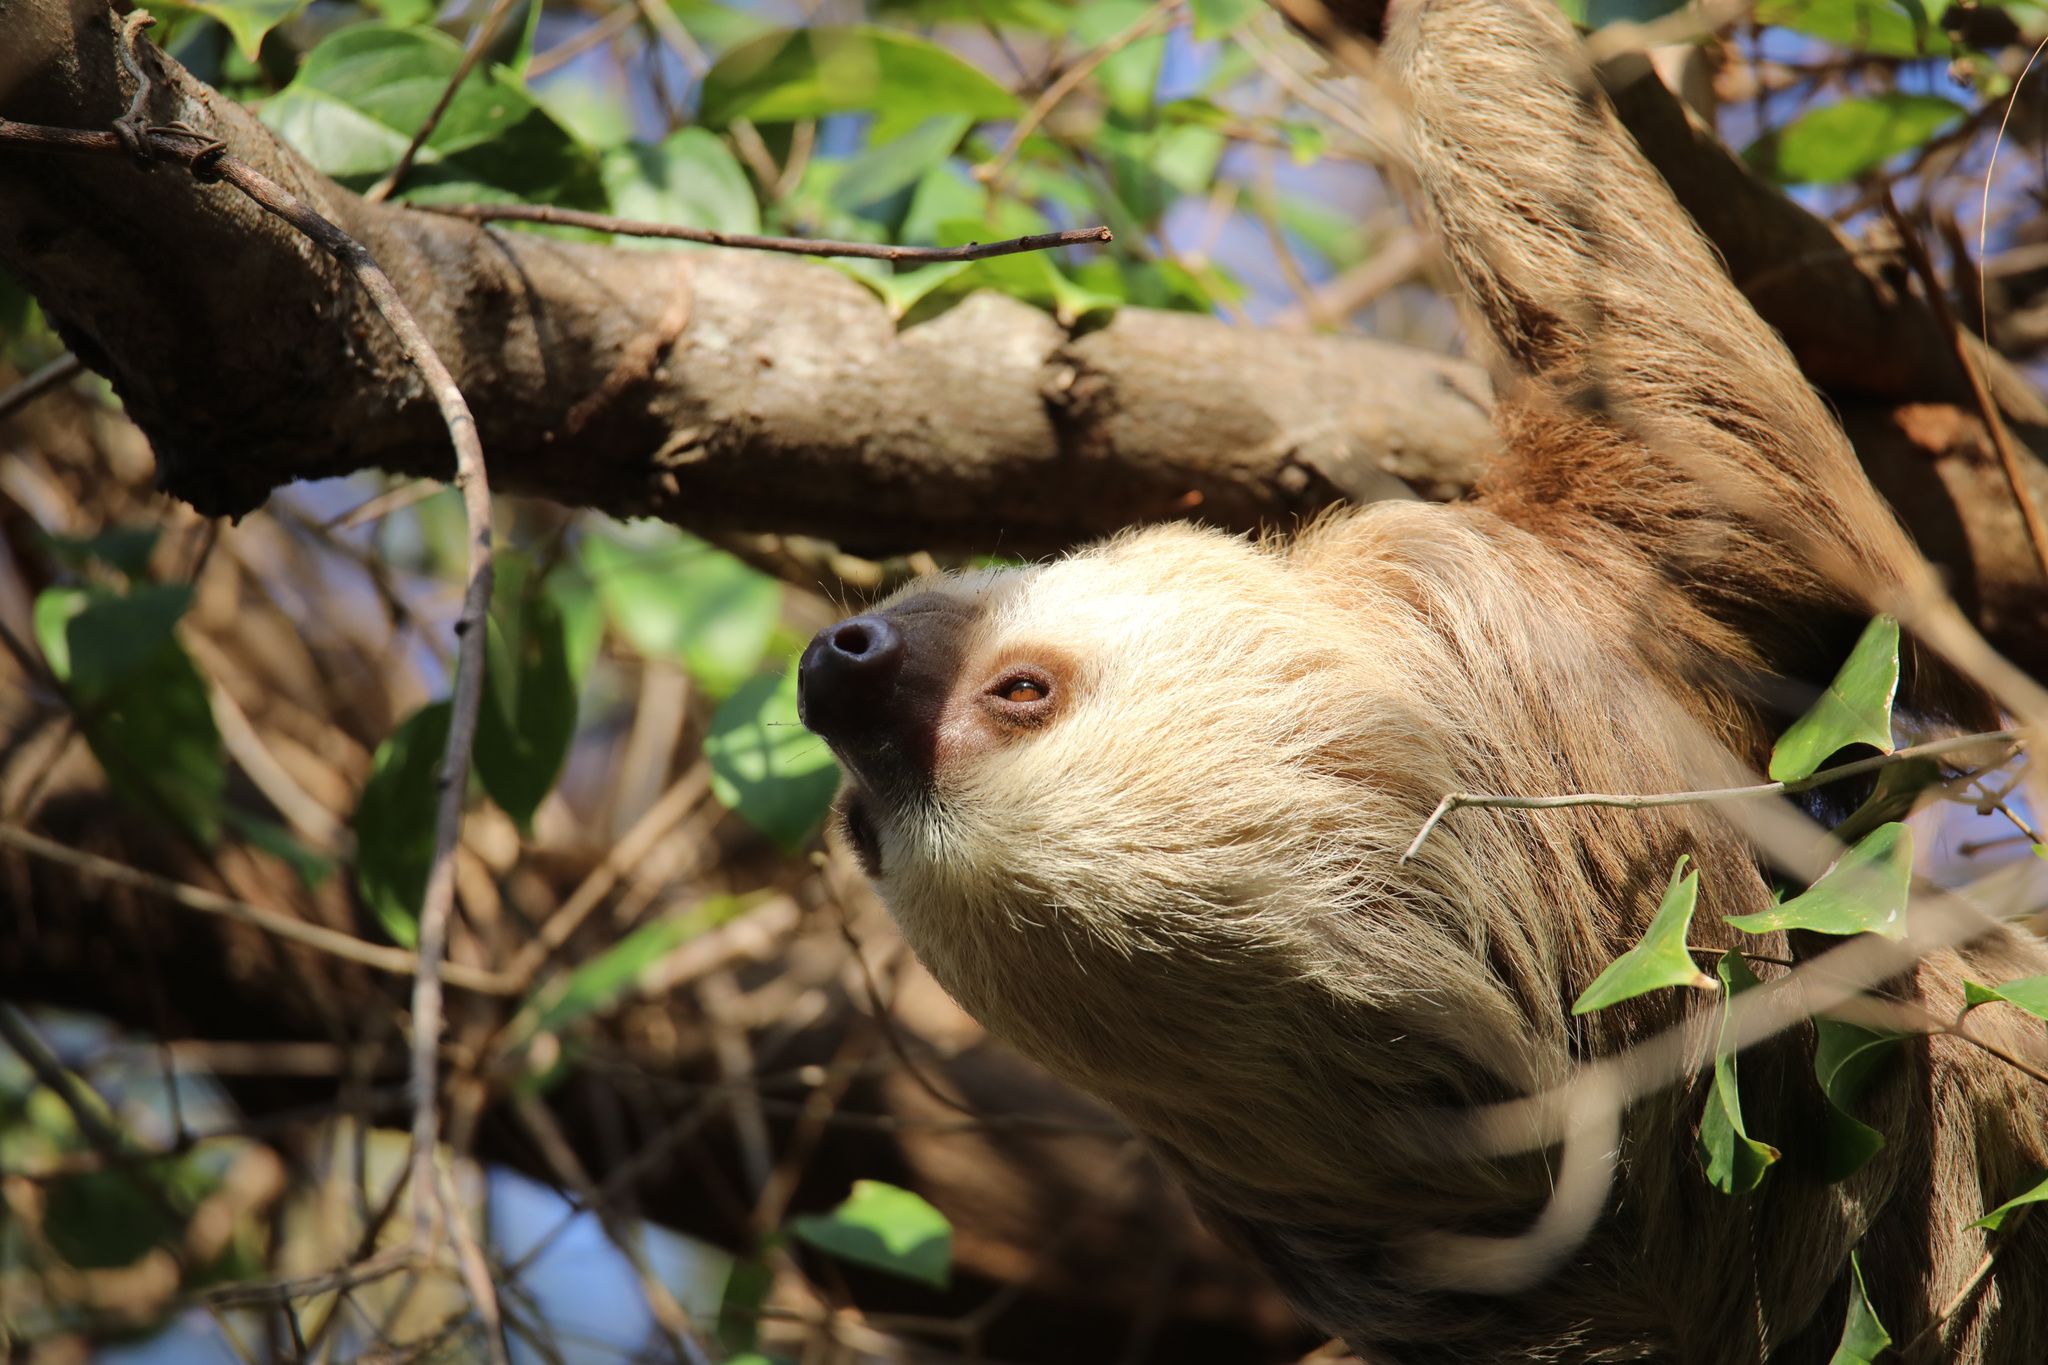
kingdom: Animalia
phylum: Chordata
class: Mammalia
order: Pilosa
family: Megalonychidae
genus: Choloepus
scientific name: Choloepus hoffmanni
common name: Hoffmann's two-toed sloth
